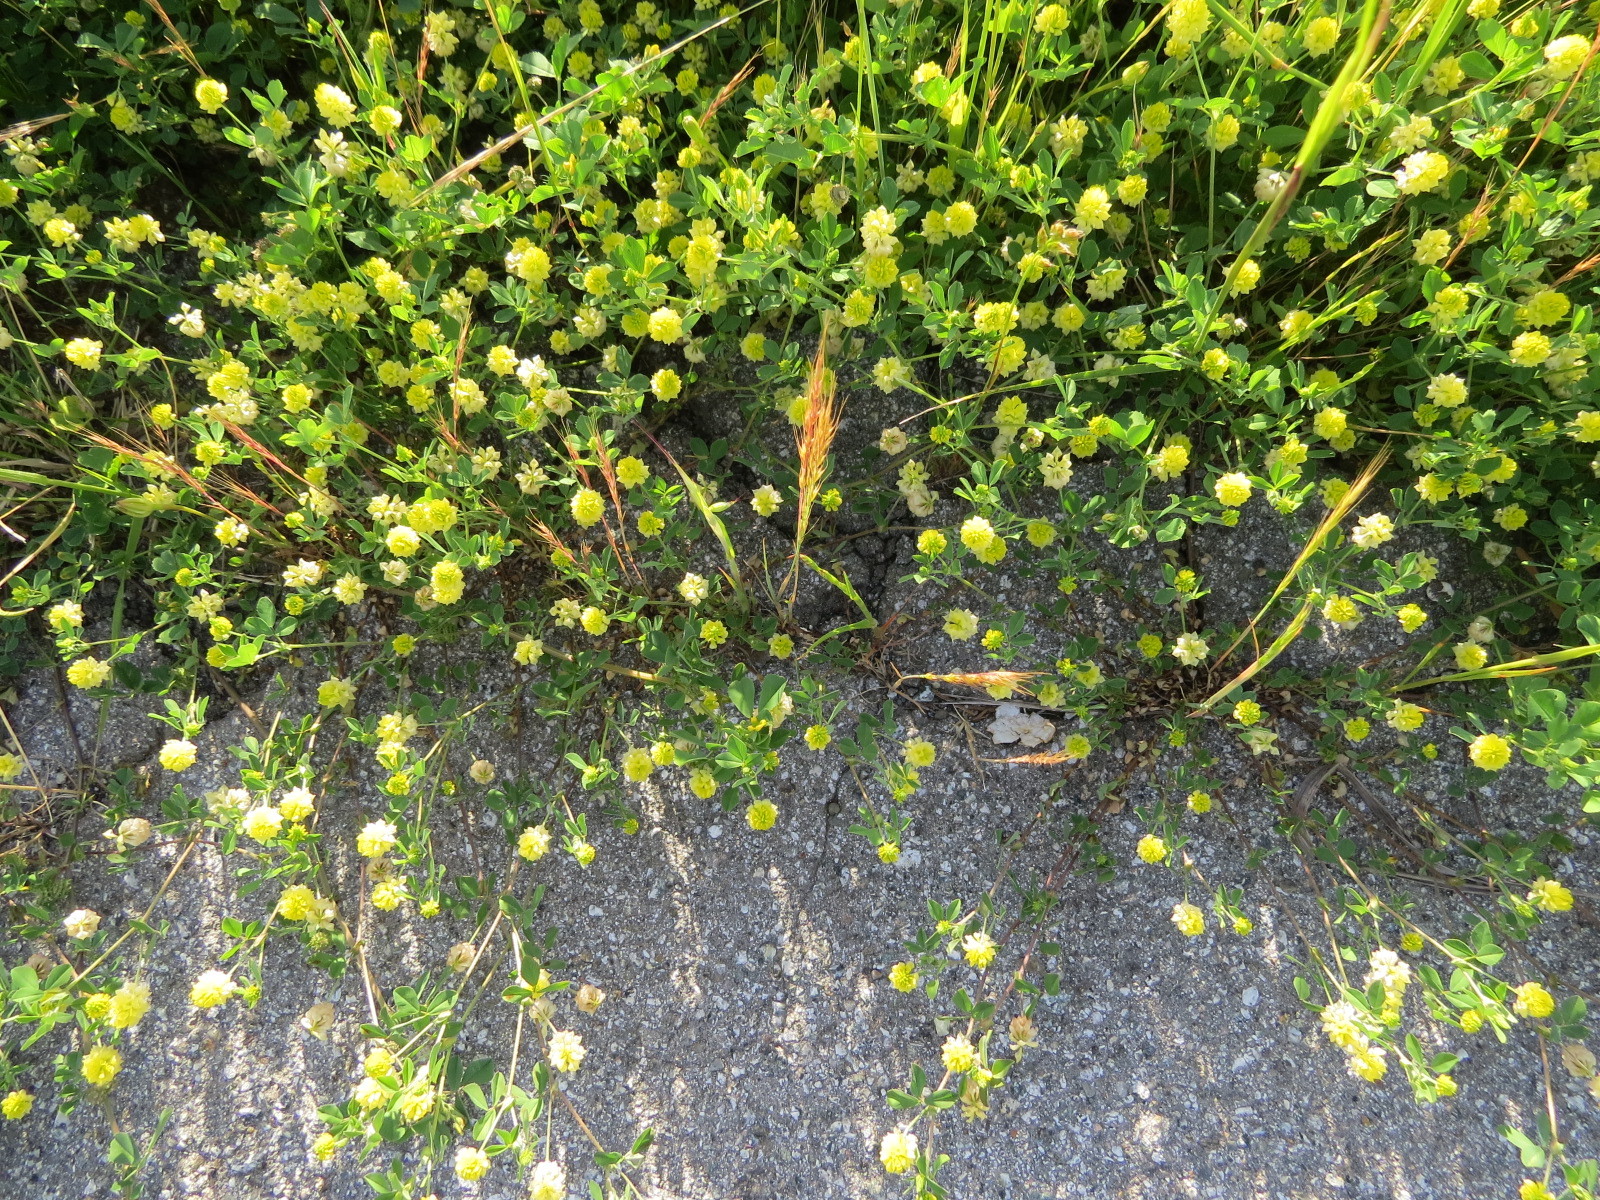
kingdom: Plantae
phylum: Tracheophyta
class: Magnoliopsida
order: Fabales
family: Fabaceae
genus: Trifolium
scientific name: Trifolium campestre
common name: Field clover
